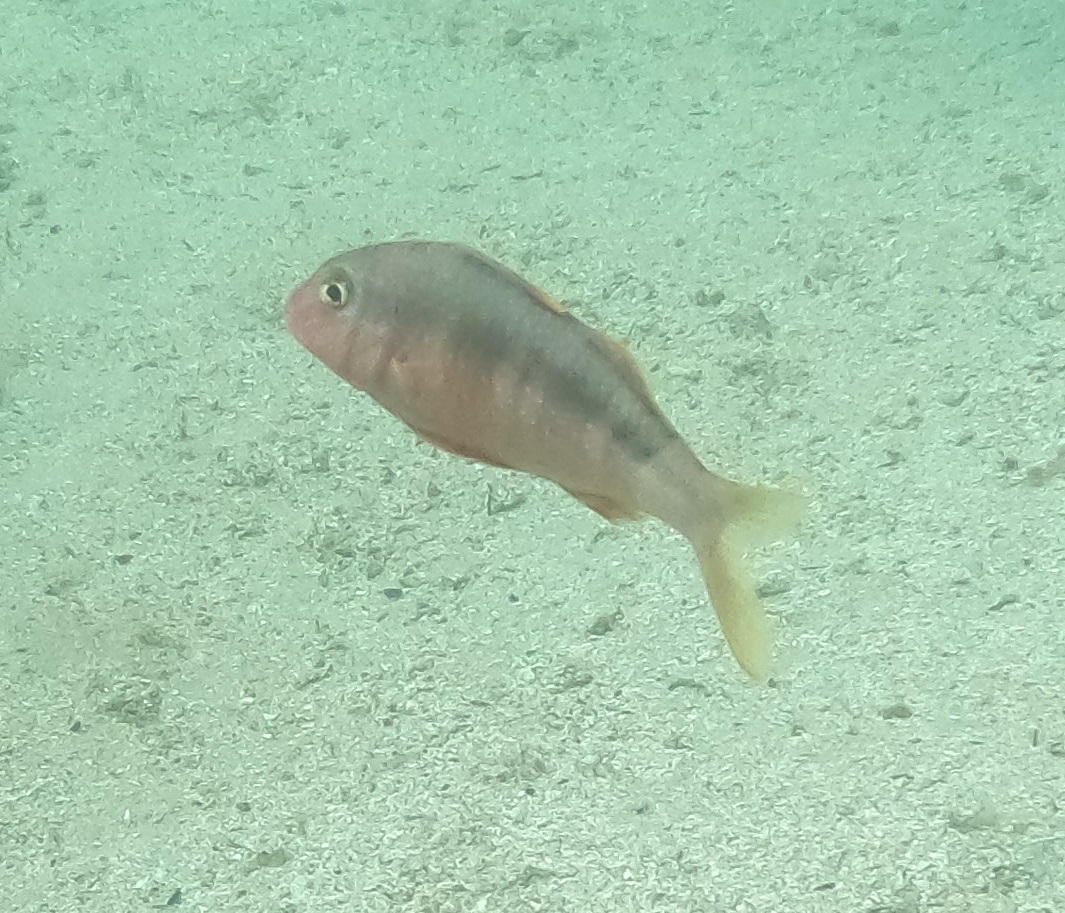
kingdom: Animalia
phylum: Chordata
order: Perciformes
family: Mullidae
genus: Upeneichthys
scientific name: Upeneichthys lineatus
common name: Red mullet
